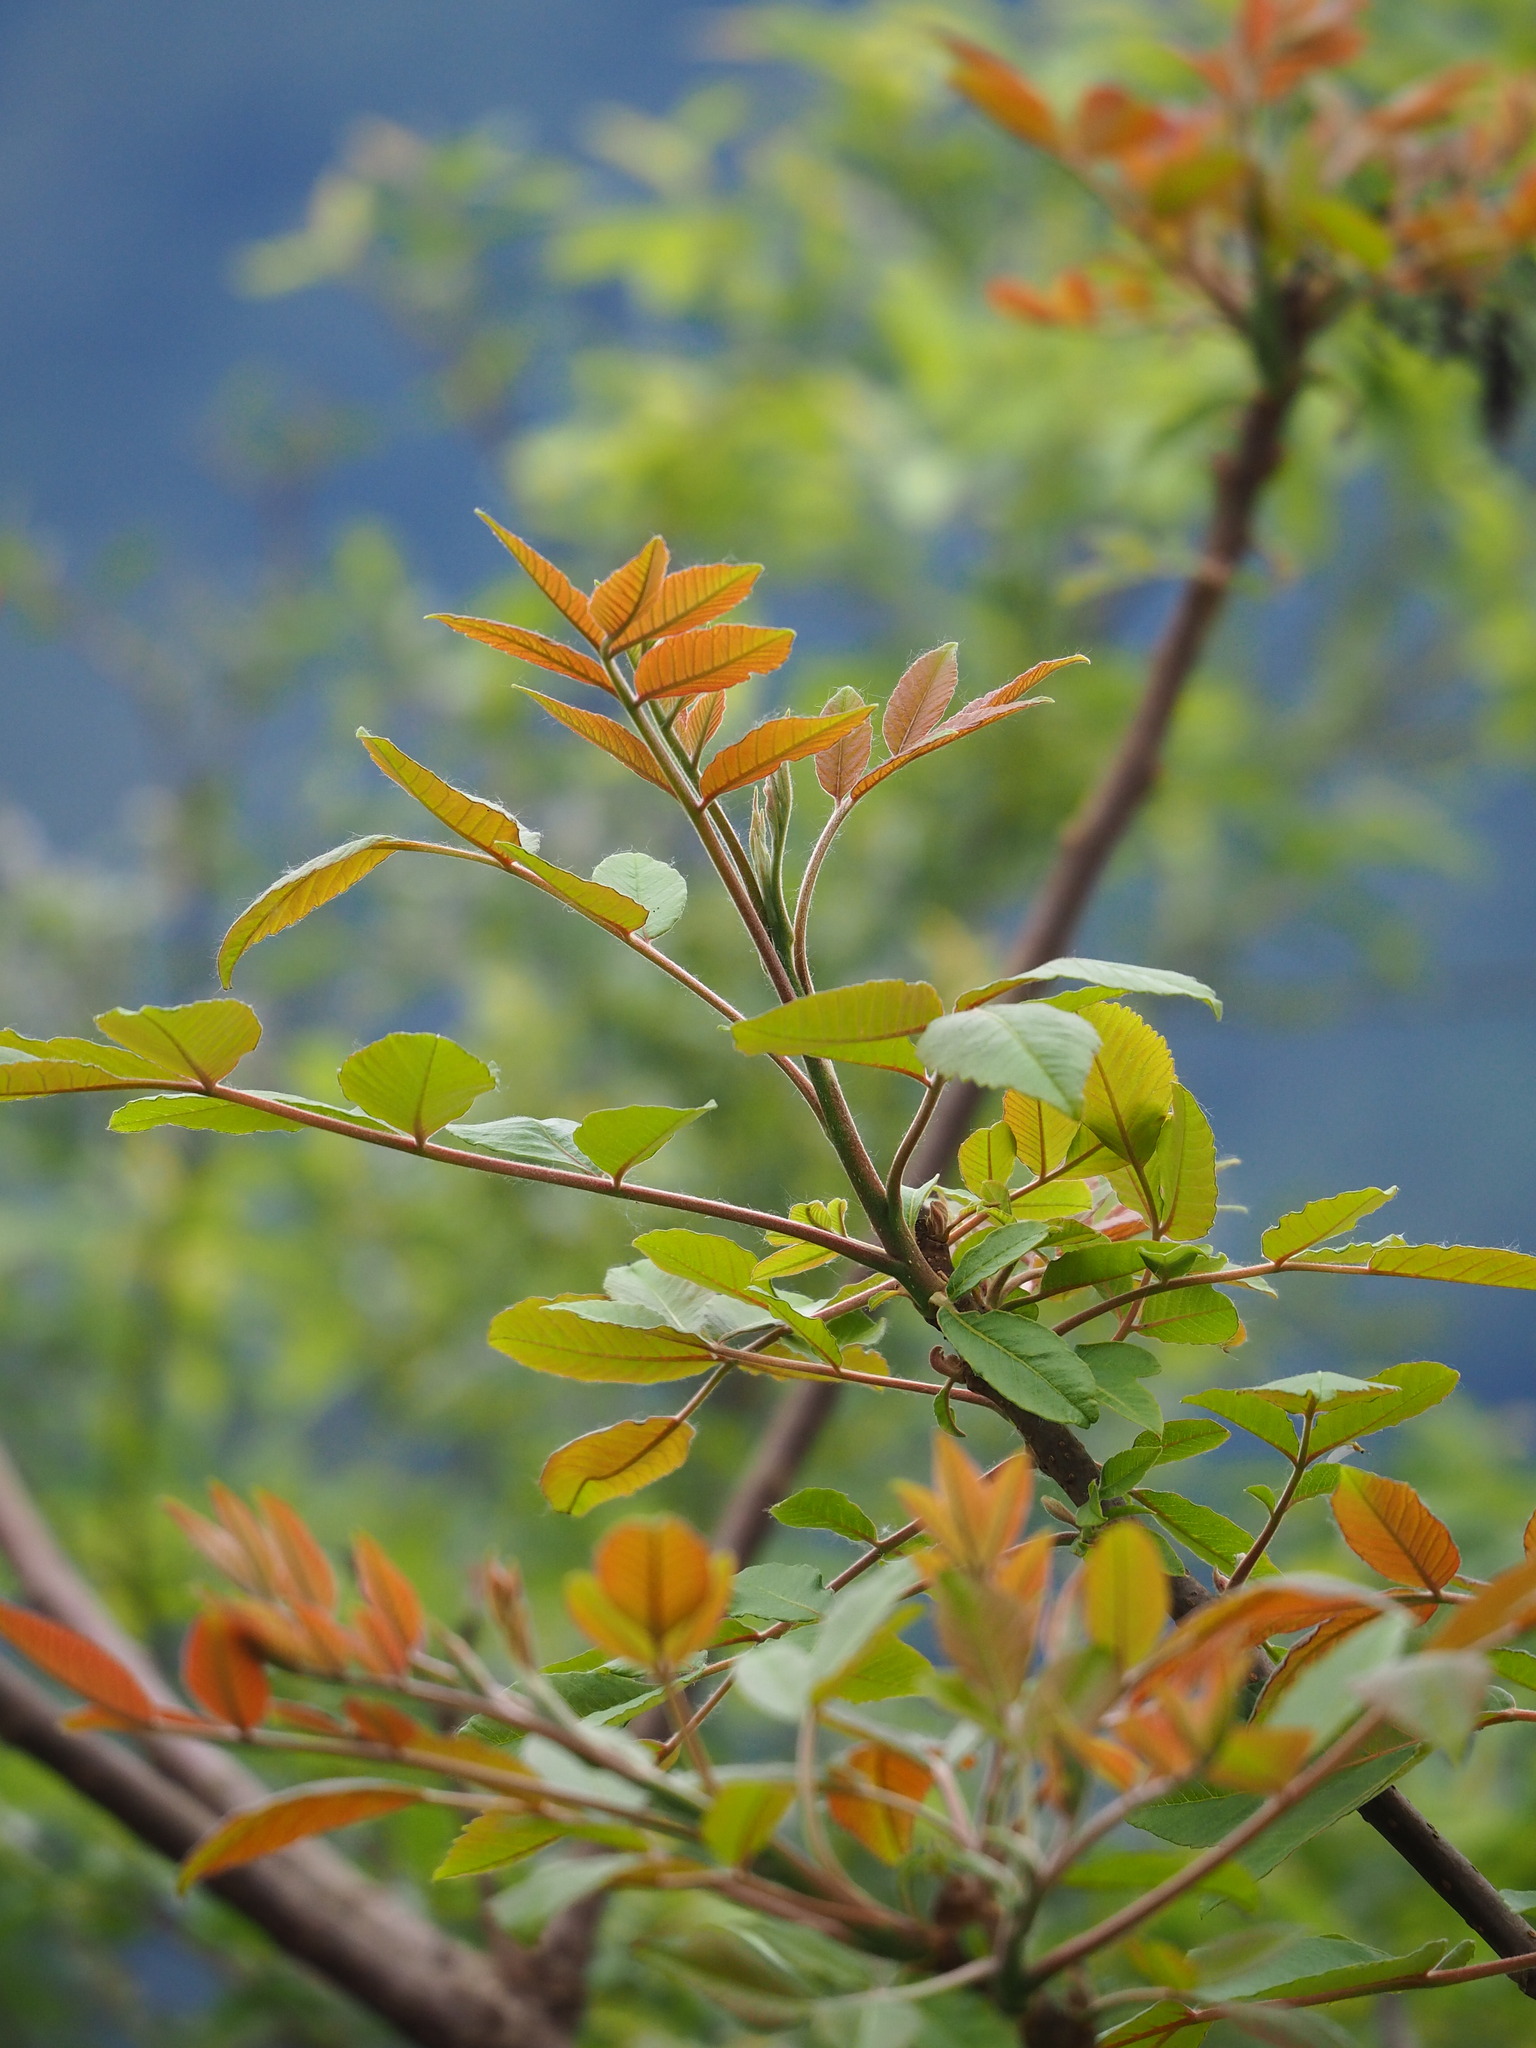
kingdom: Plantae
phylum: Tracheophyta
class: Magnoliopsida
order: Sapindales
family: Anacardiaceae
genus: Rhus
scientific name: Rhus chinensis
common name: Chinese gall
